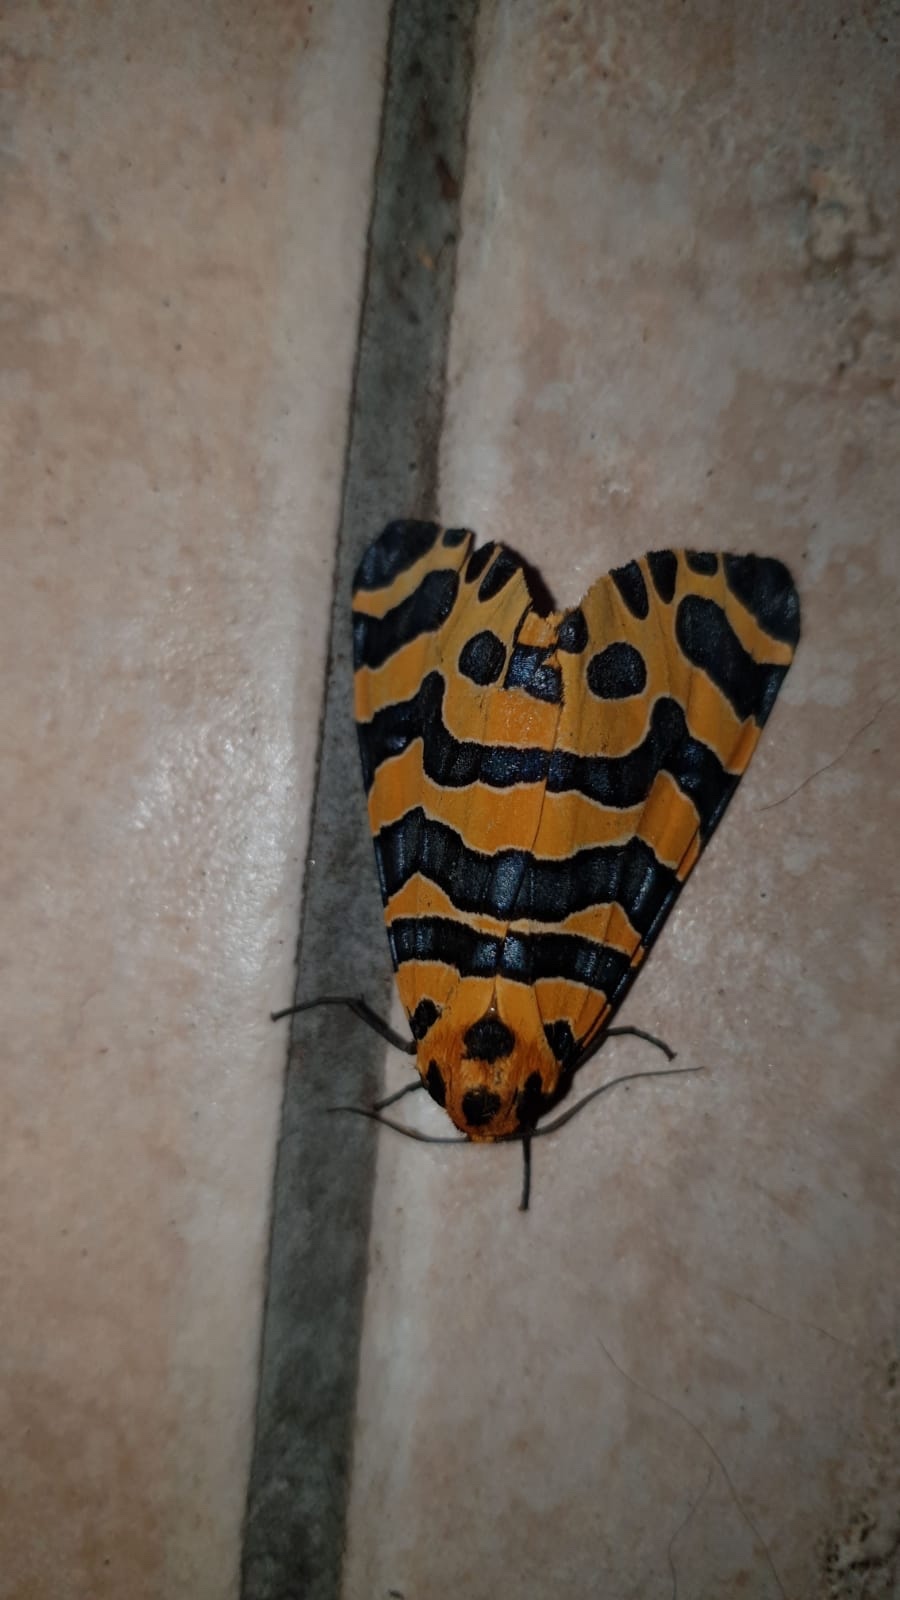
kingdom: Animalia
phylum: Arthropoda
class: Insecta
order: Lepidoptera
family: Erebidae
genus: Amphicallia
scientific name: Amphicallia bellatrix
